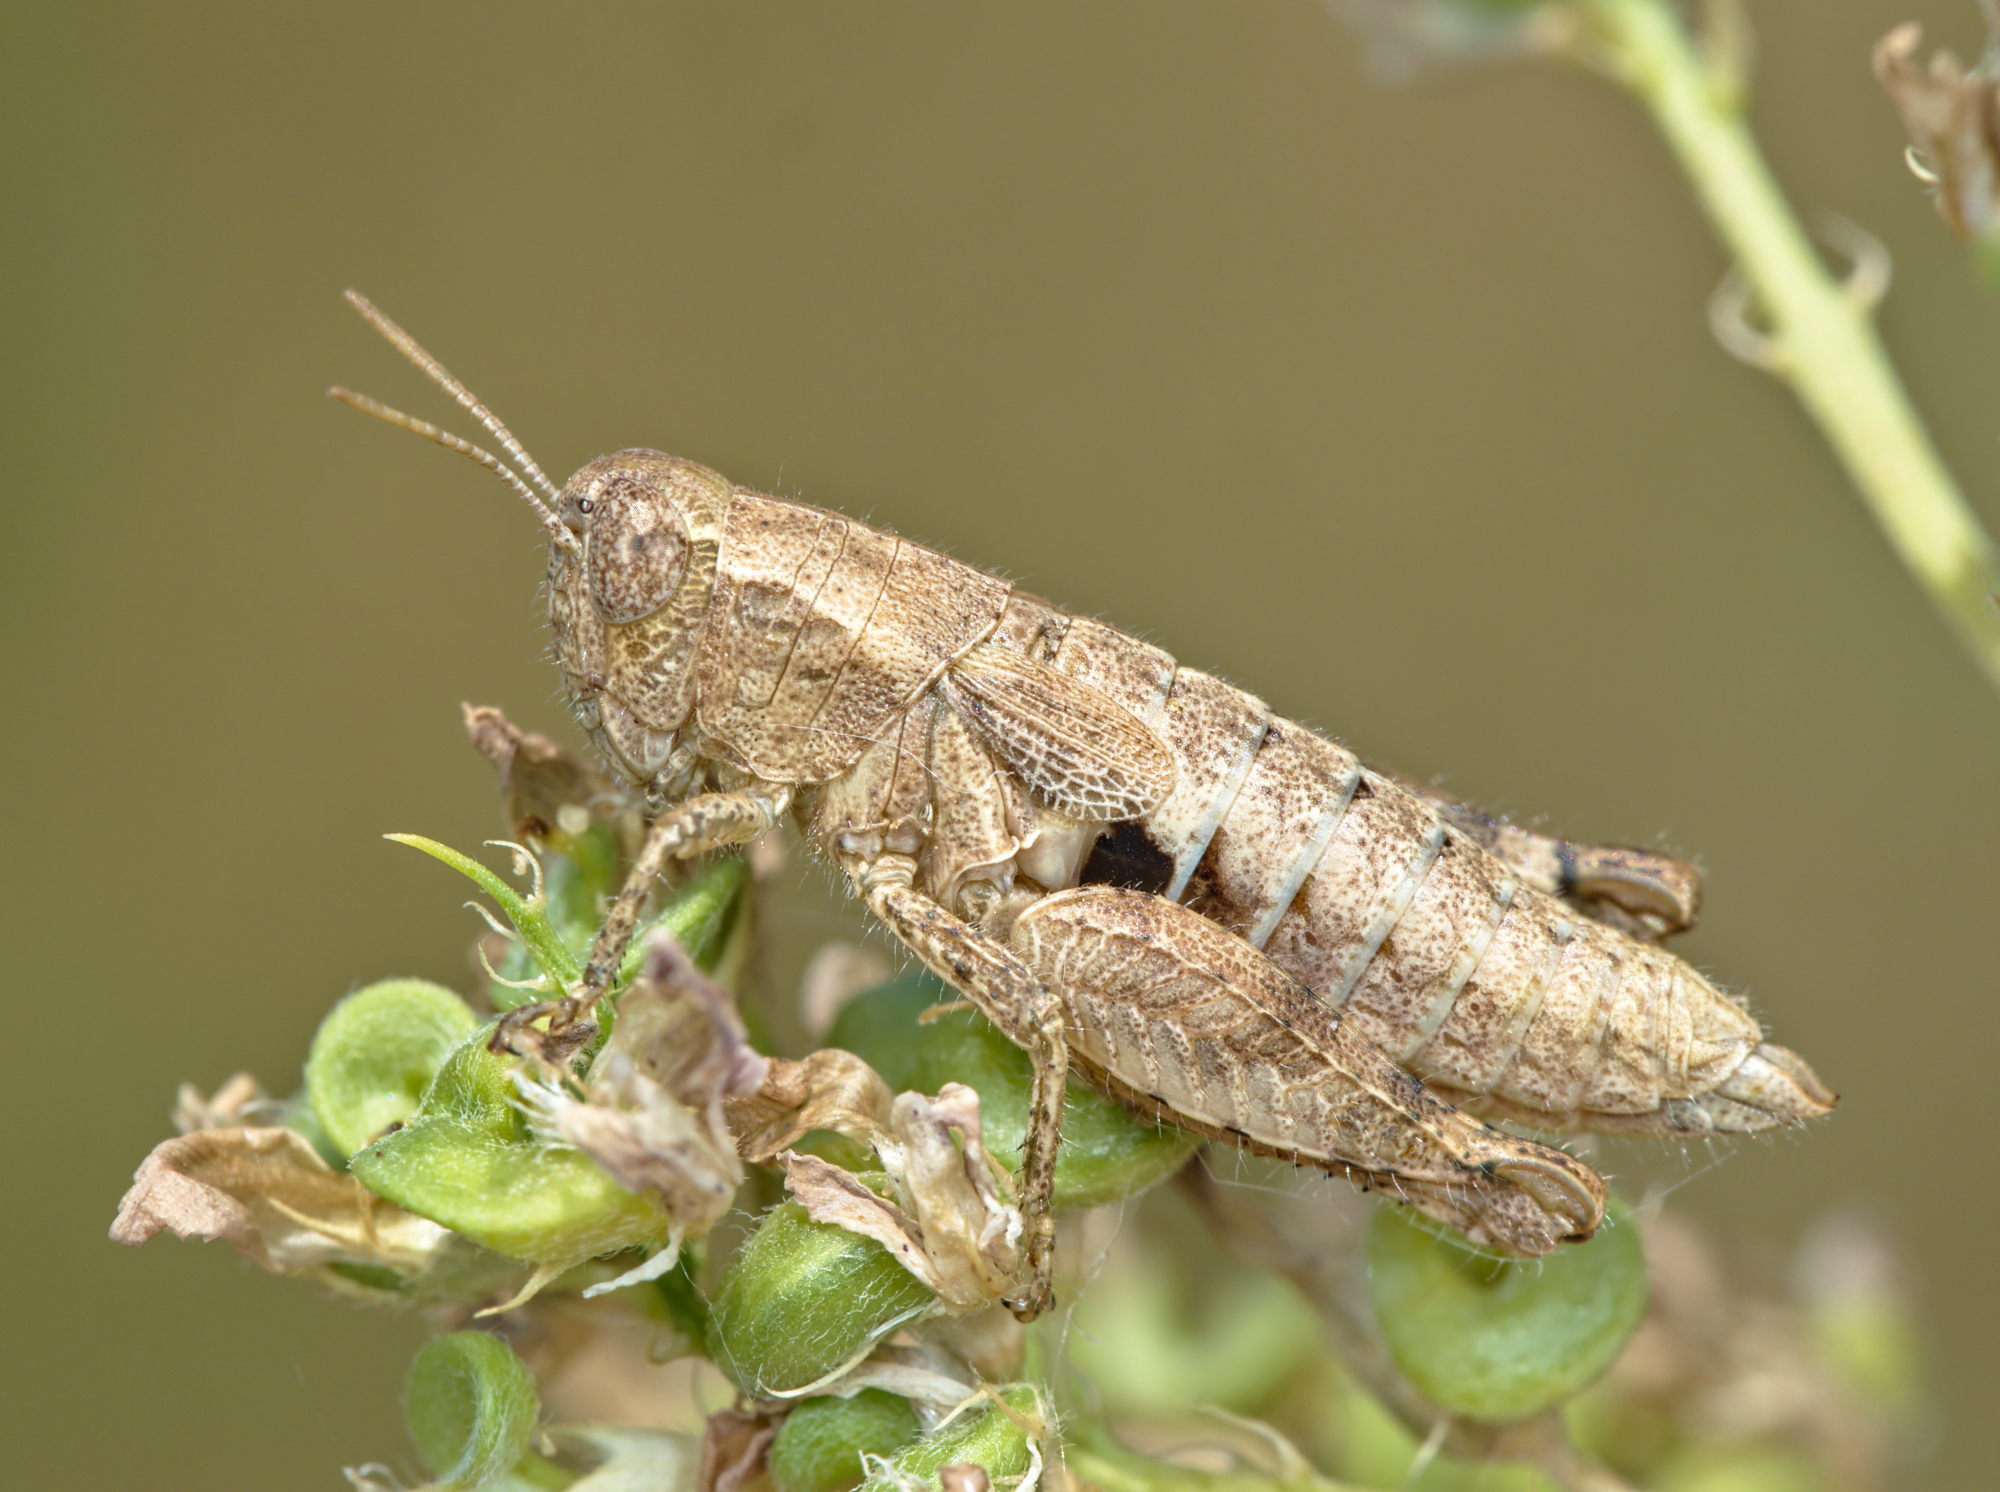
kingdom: Animalia
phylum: Arthropoda
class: Insecta
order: Orthoptera
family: Acrididae
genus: Pezotettix
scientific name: Pezotettix giornae
